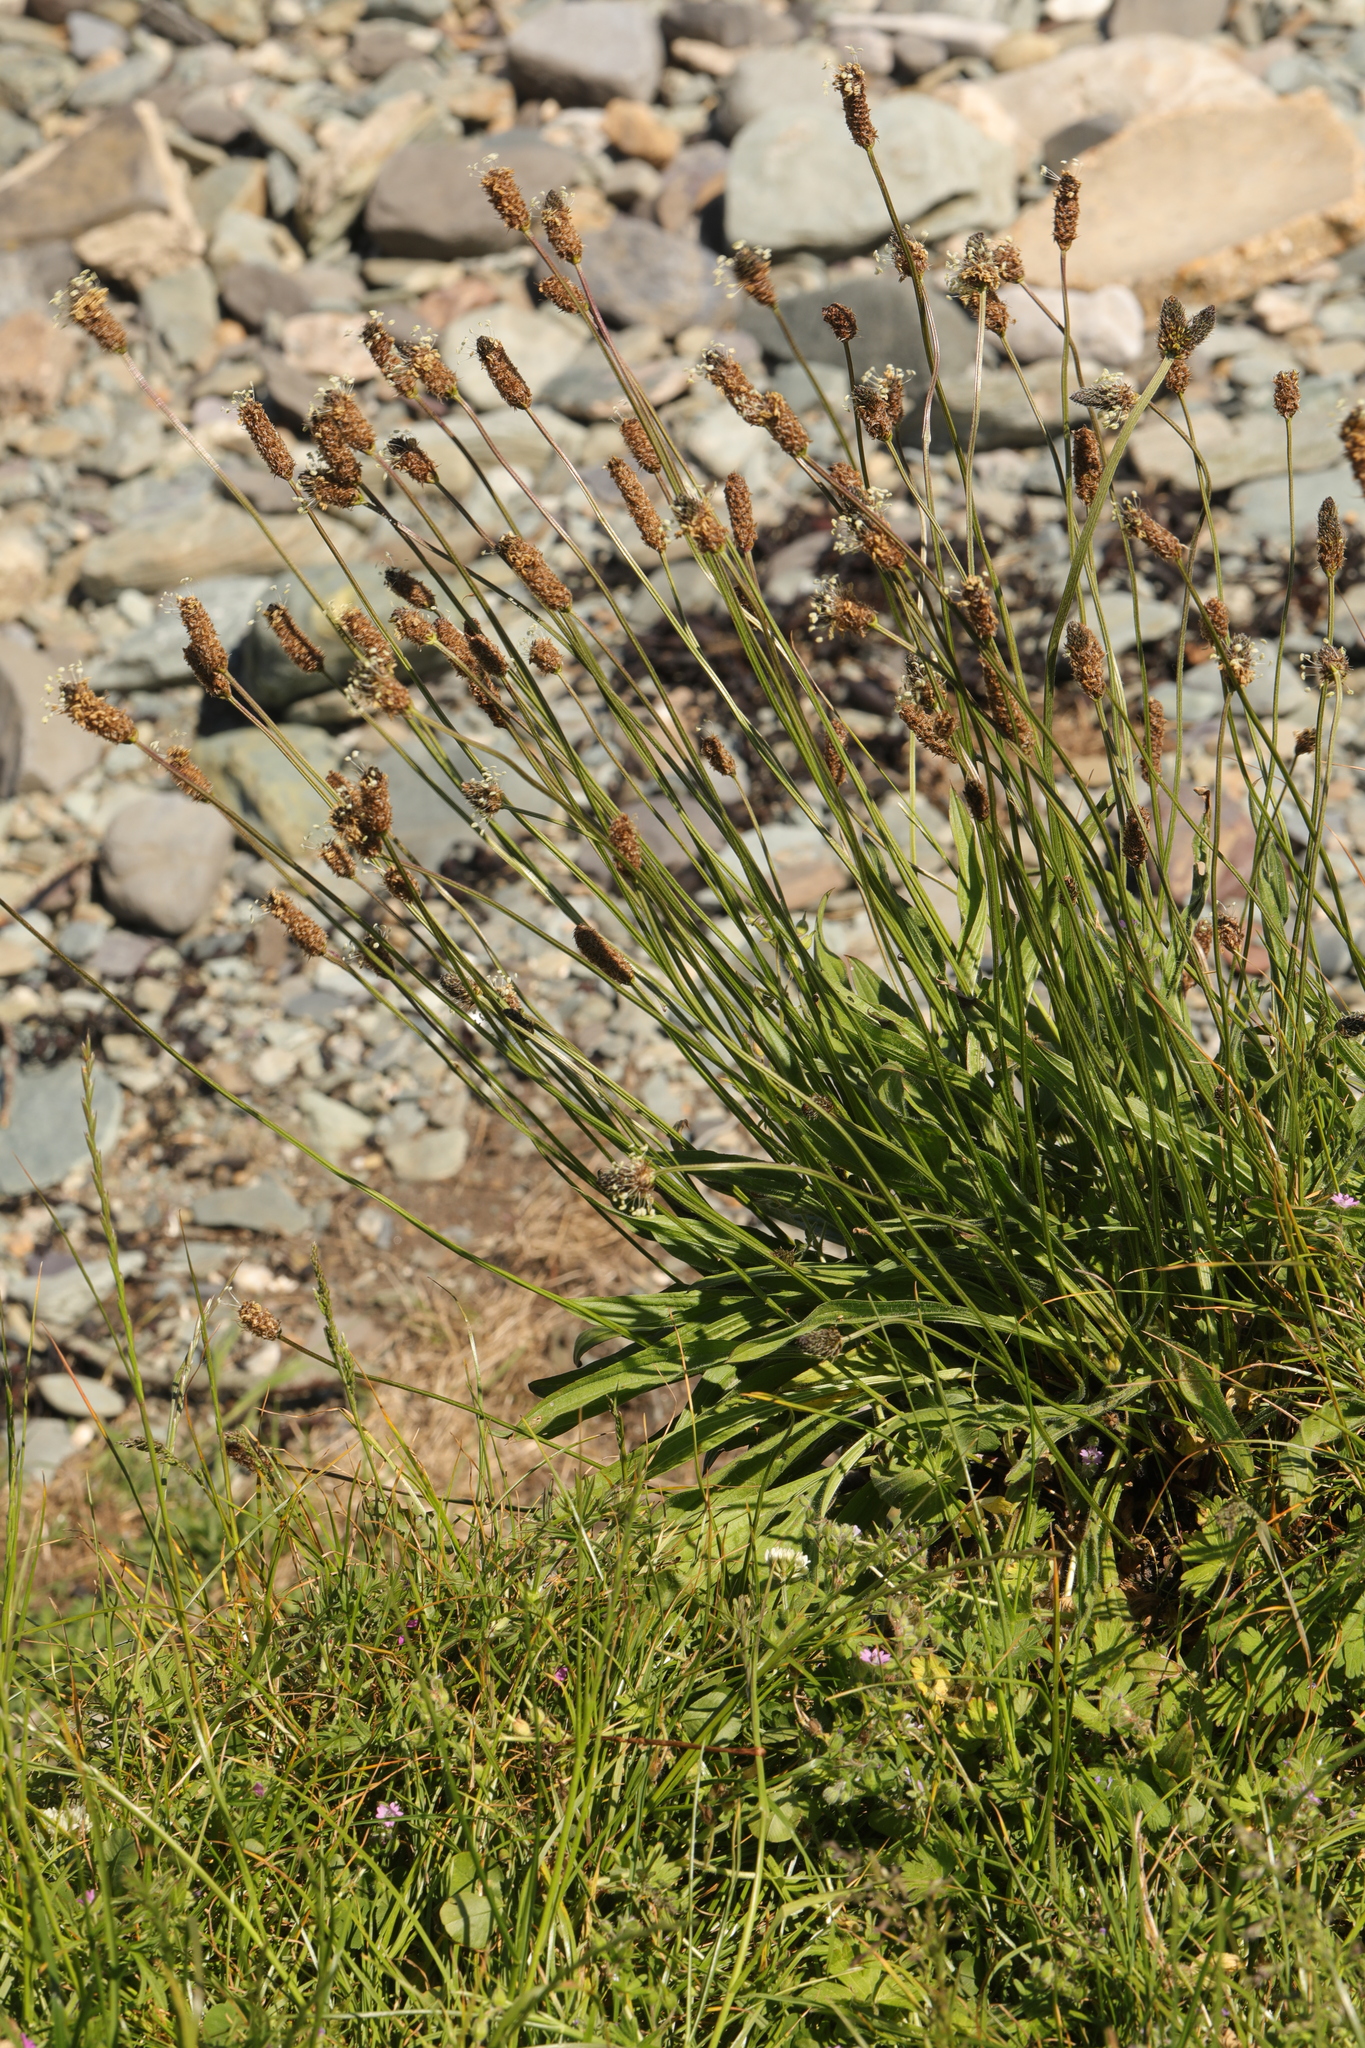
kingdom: Plantae
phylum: Tracheophyta
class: Magnoliopsida
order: Lamiales
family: Plantaginaceae
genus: Plantago
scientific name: Plantago lanceolata
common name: Ribwort plantain
